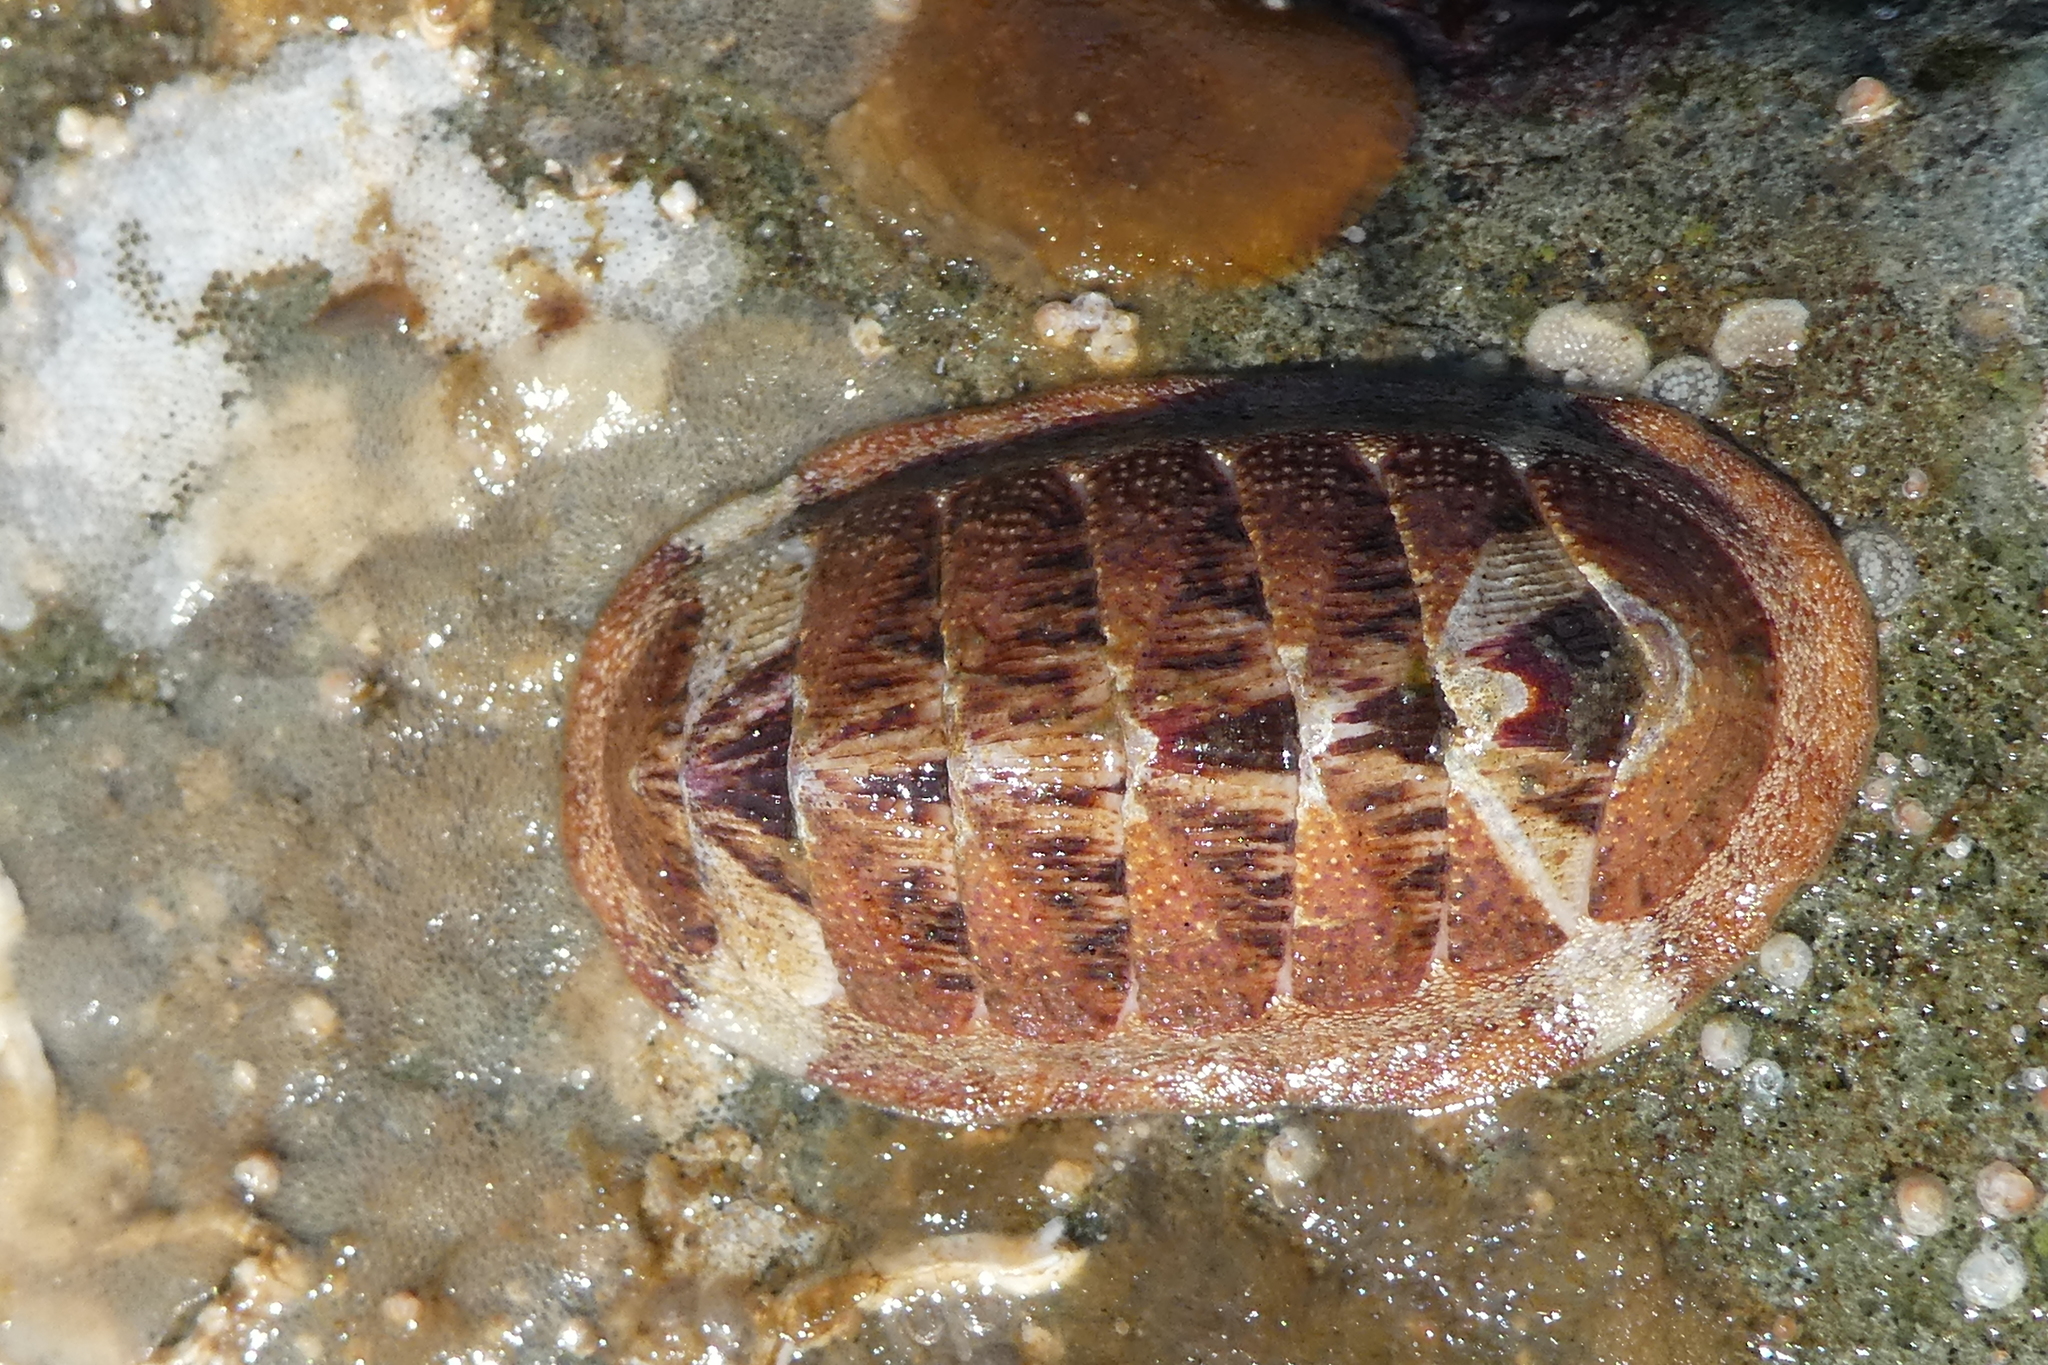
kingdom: Animalia
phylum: Mollusca
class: Polyplacophora
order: Chitonida
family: Ischnochitonidae
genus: Lepidozona
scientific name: Lepidozona mertensii
